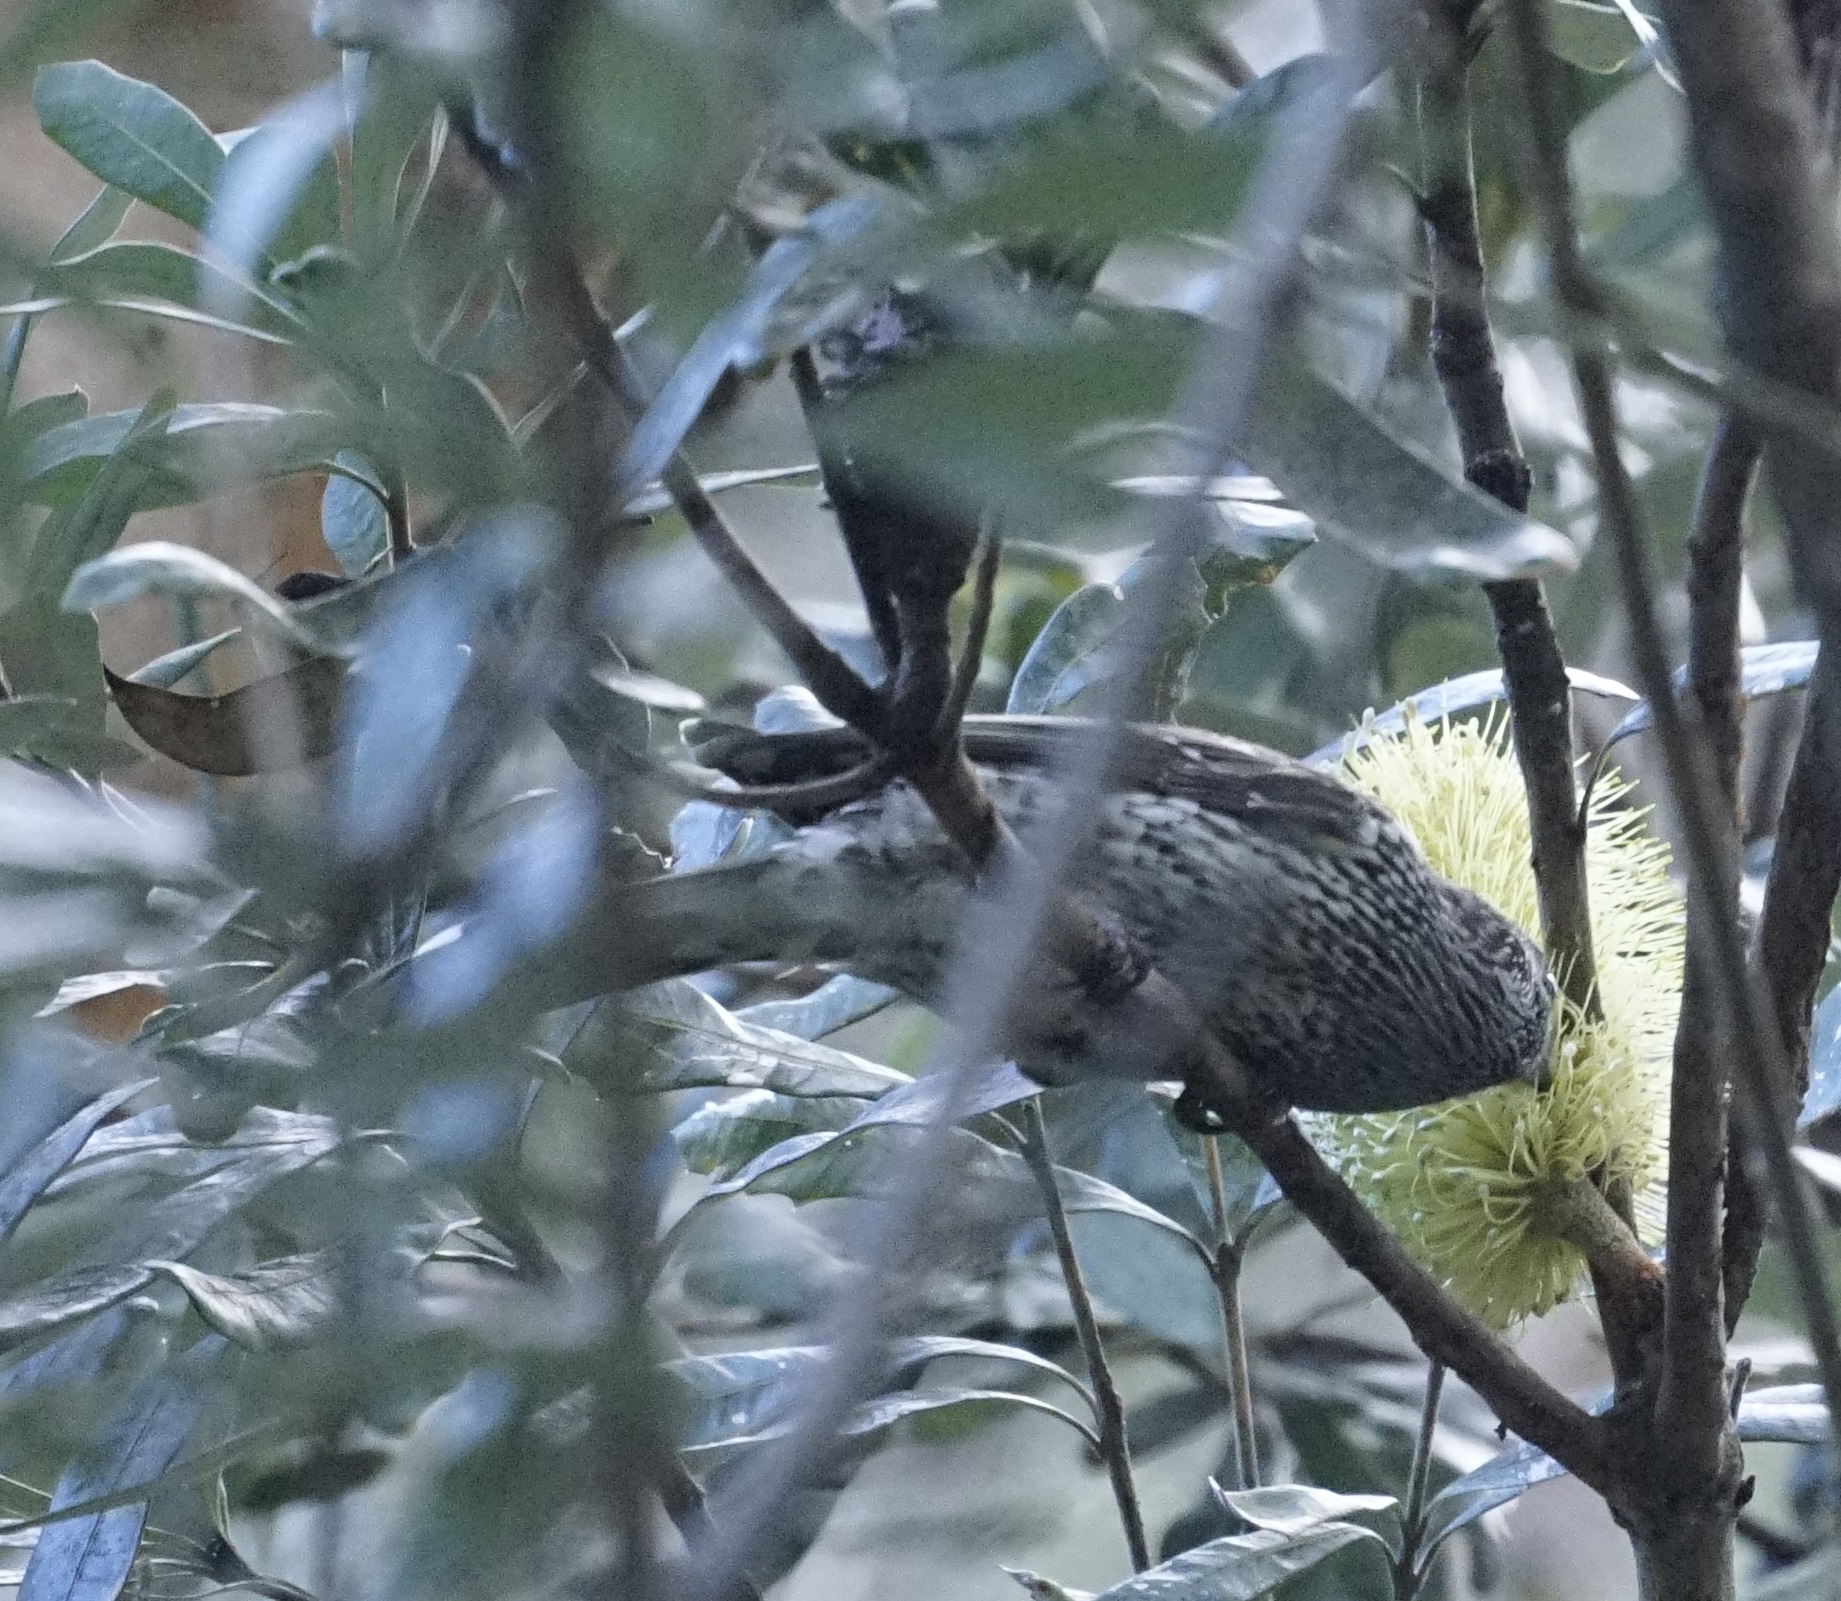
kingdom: Animalia
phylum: Chordata
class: Aves
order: Passeriformes
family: Meliphagidae
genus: Anthochaera
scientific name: Anthochaera chrysoptera
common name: Little wattlebird
